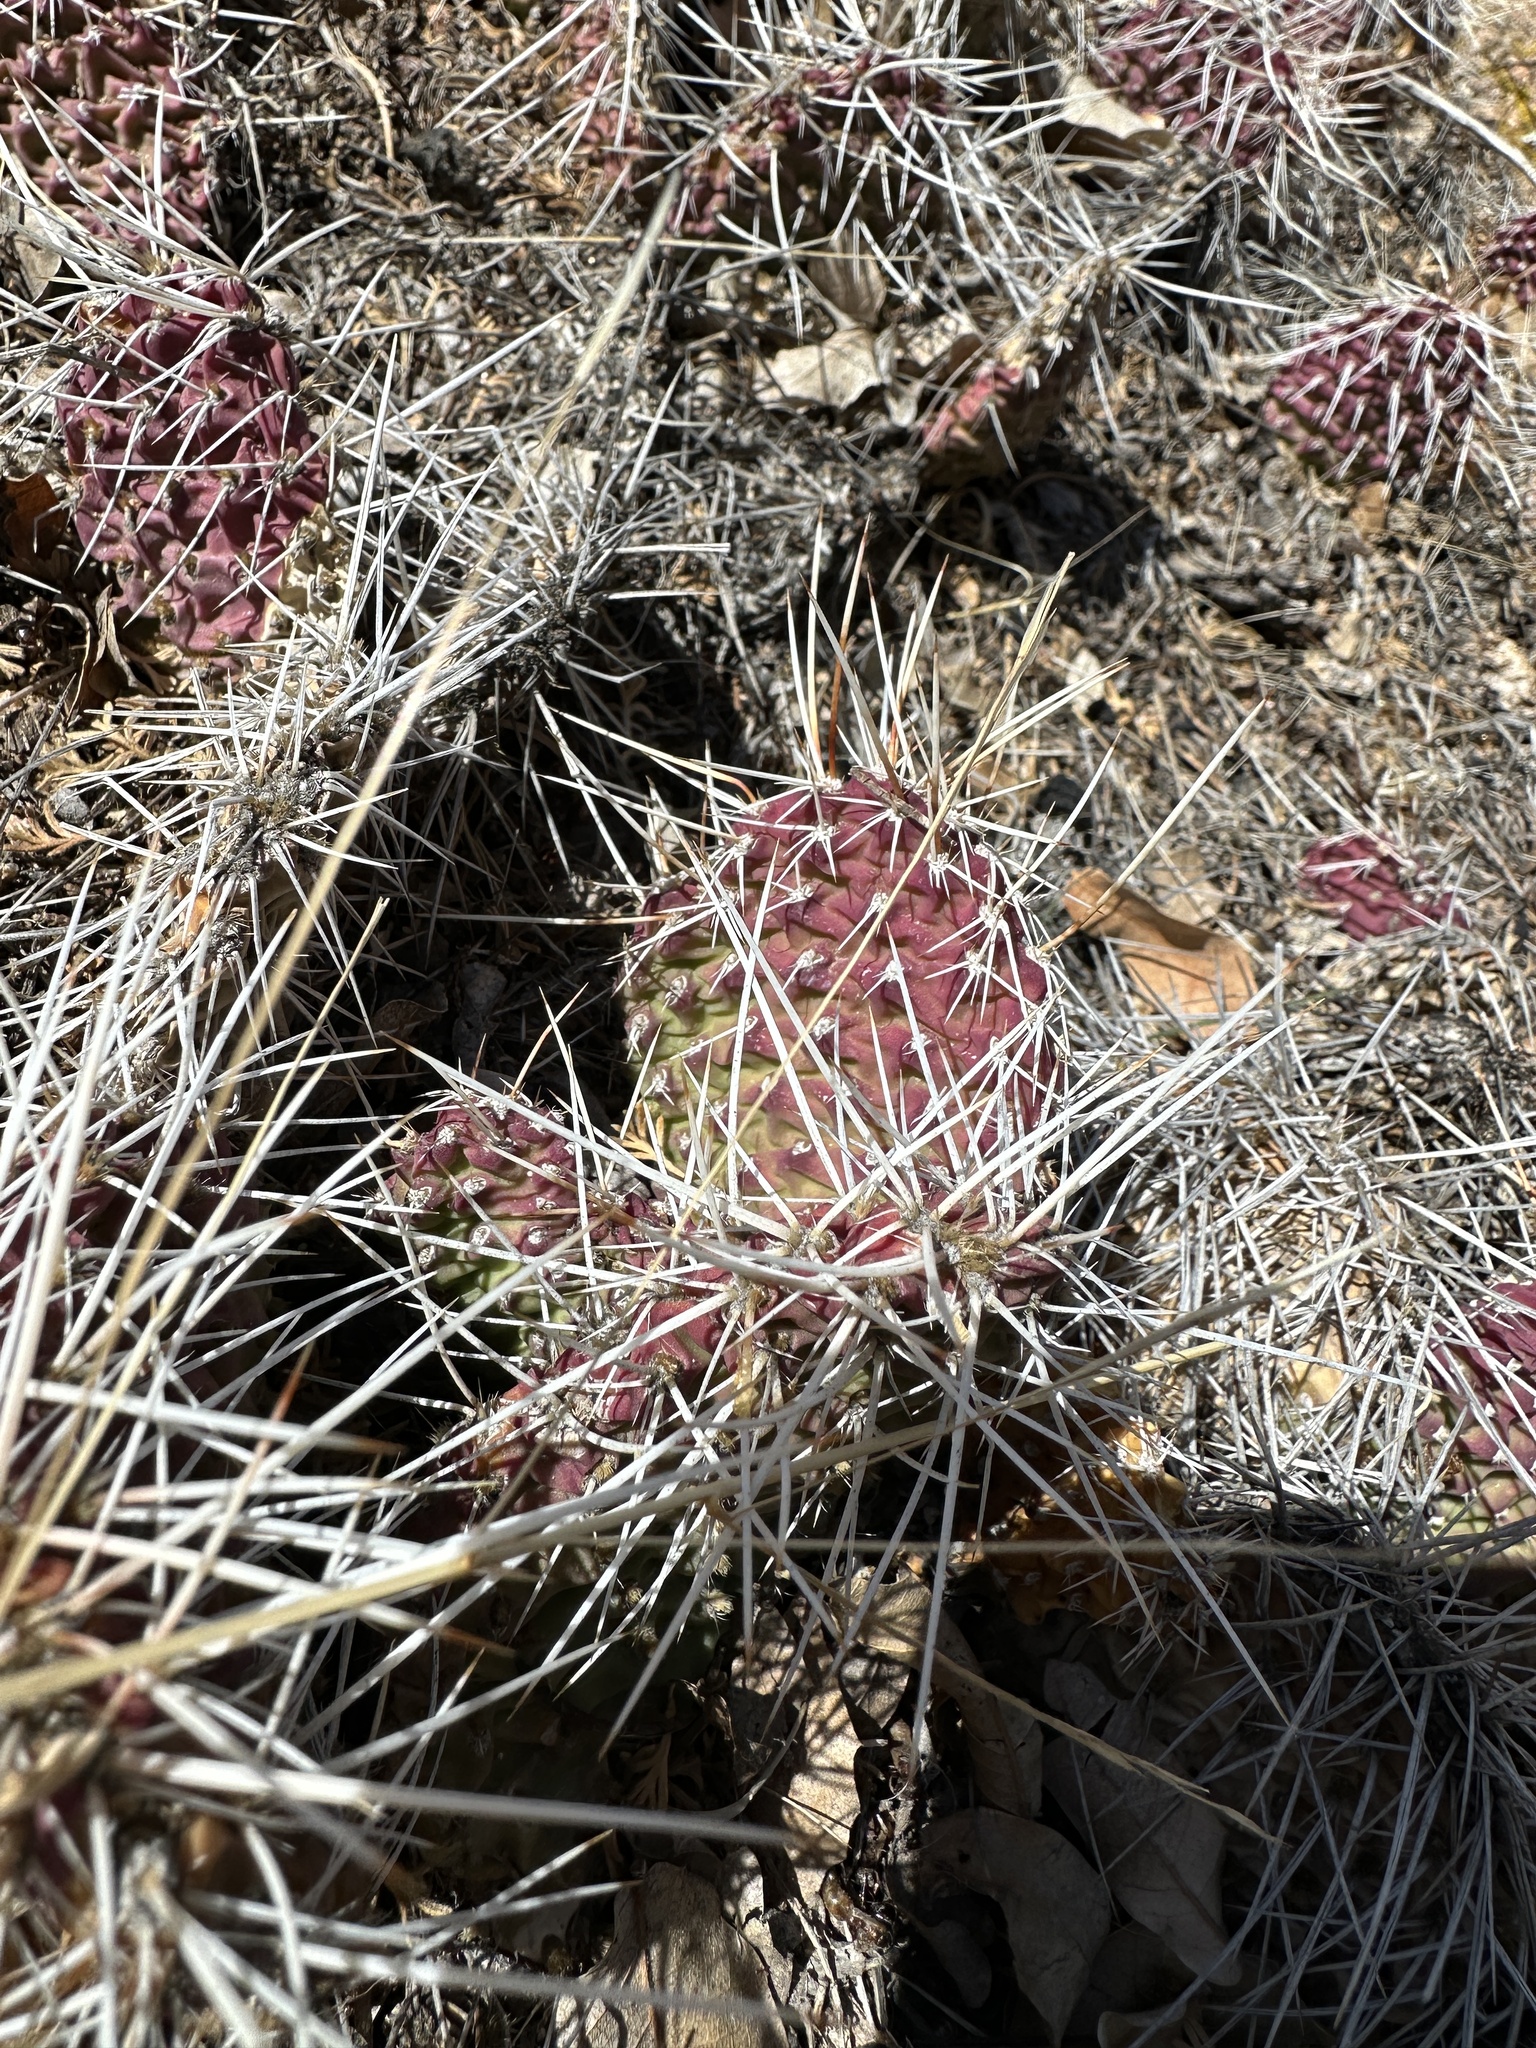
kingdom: Plantae
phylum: Tracheophyta
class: Magnoliopsida
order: Caryophyllales
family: Cactaceae
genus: Opuntia
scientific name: Opuntia polyacantha
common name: Plains prickly-pear
